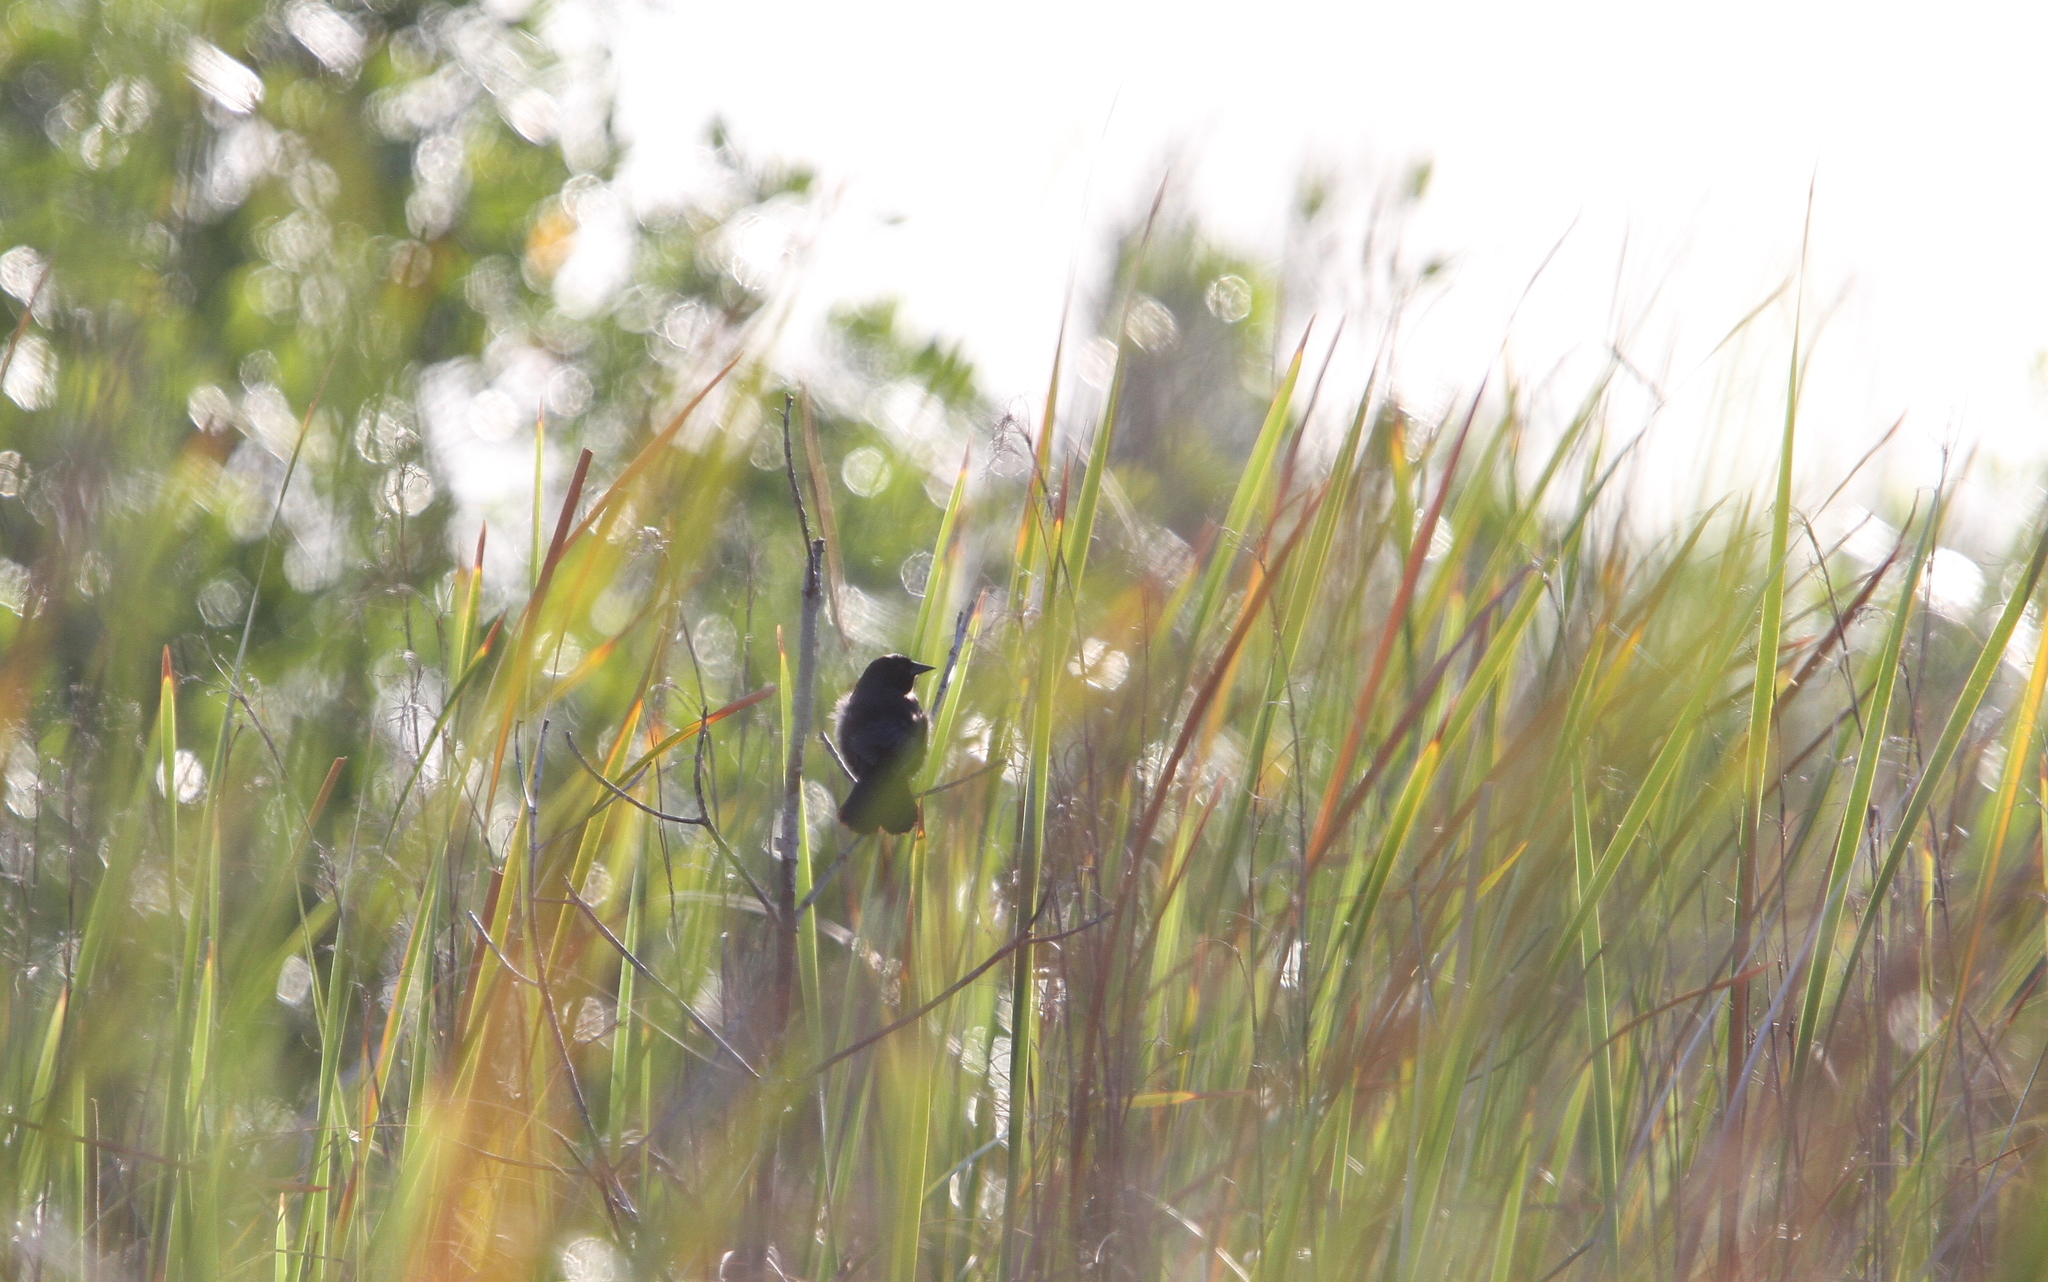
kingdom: Animalia
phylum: Chordata
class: Aves
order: Passeriformes
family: Icteridae
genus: Agelaius
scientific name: Agelaius assimilis
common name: Red-shouldered blackbird
